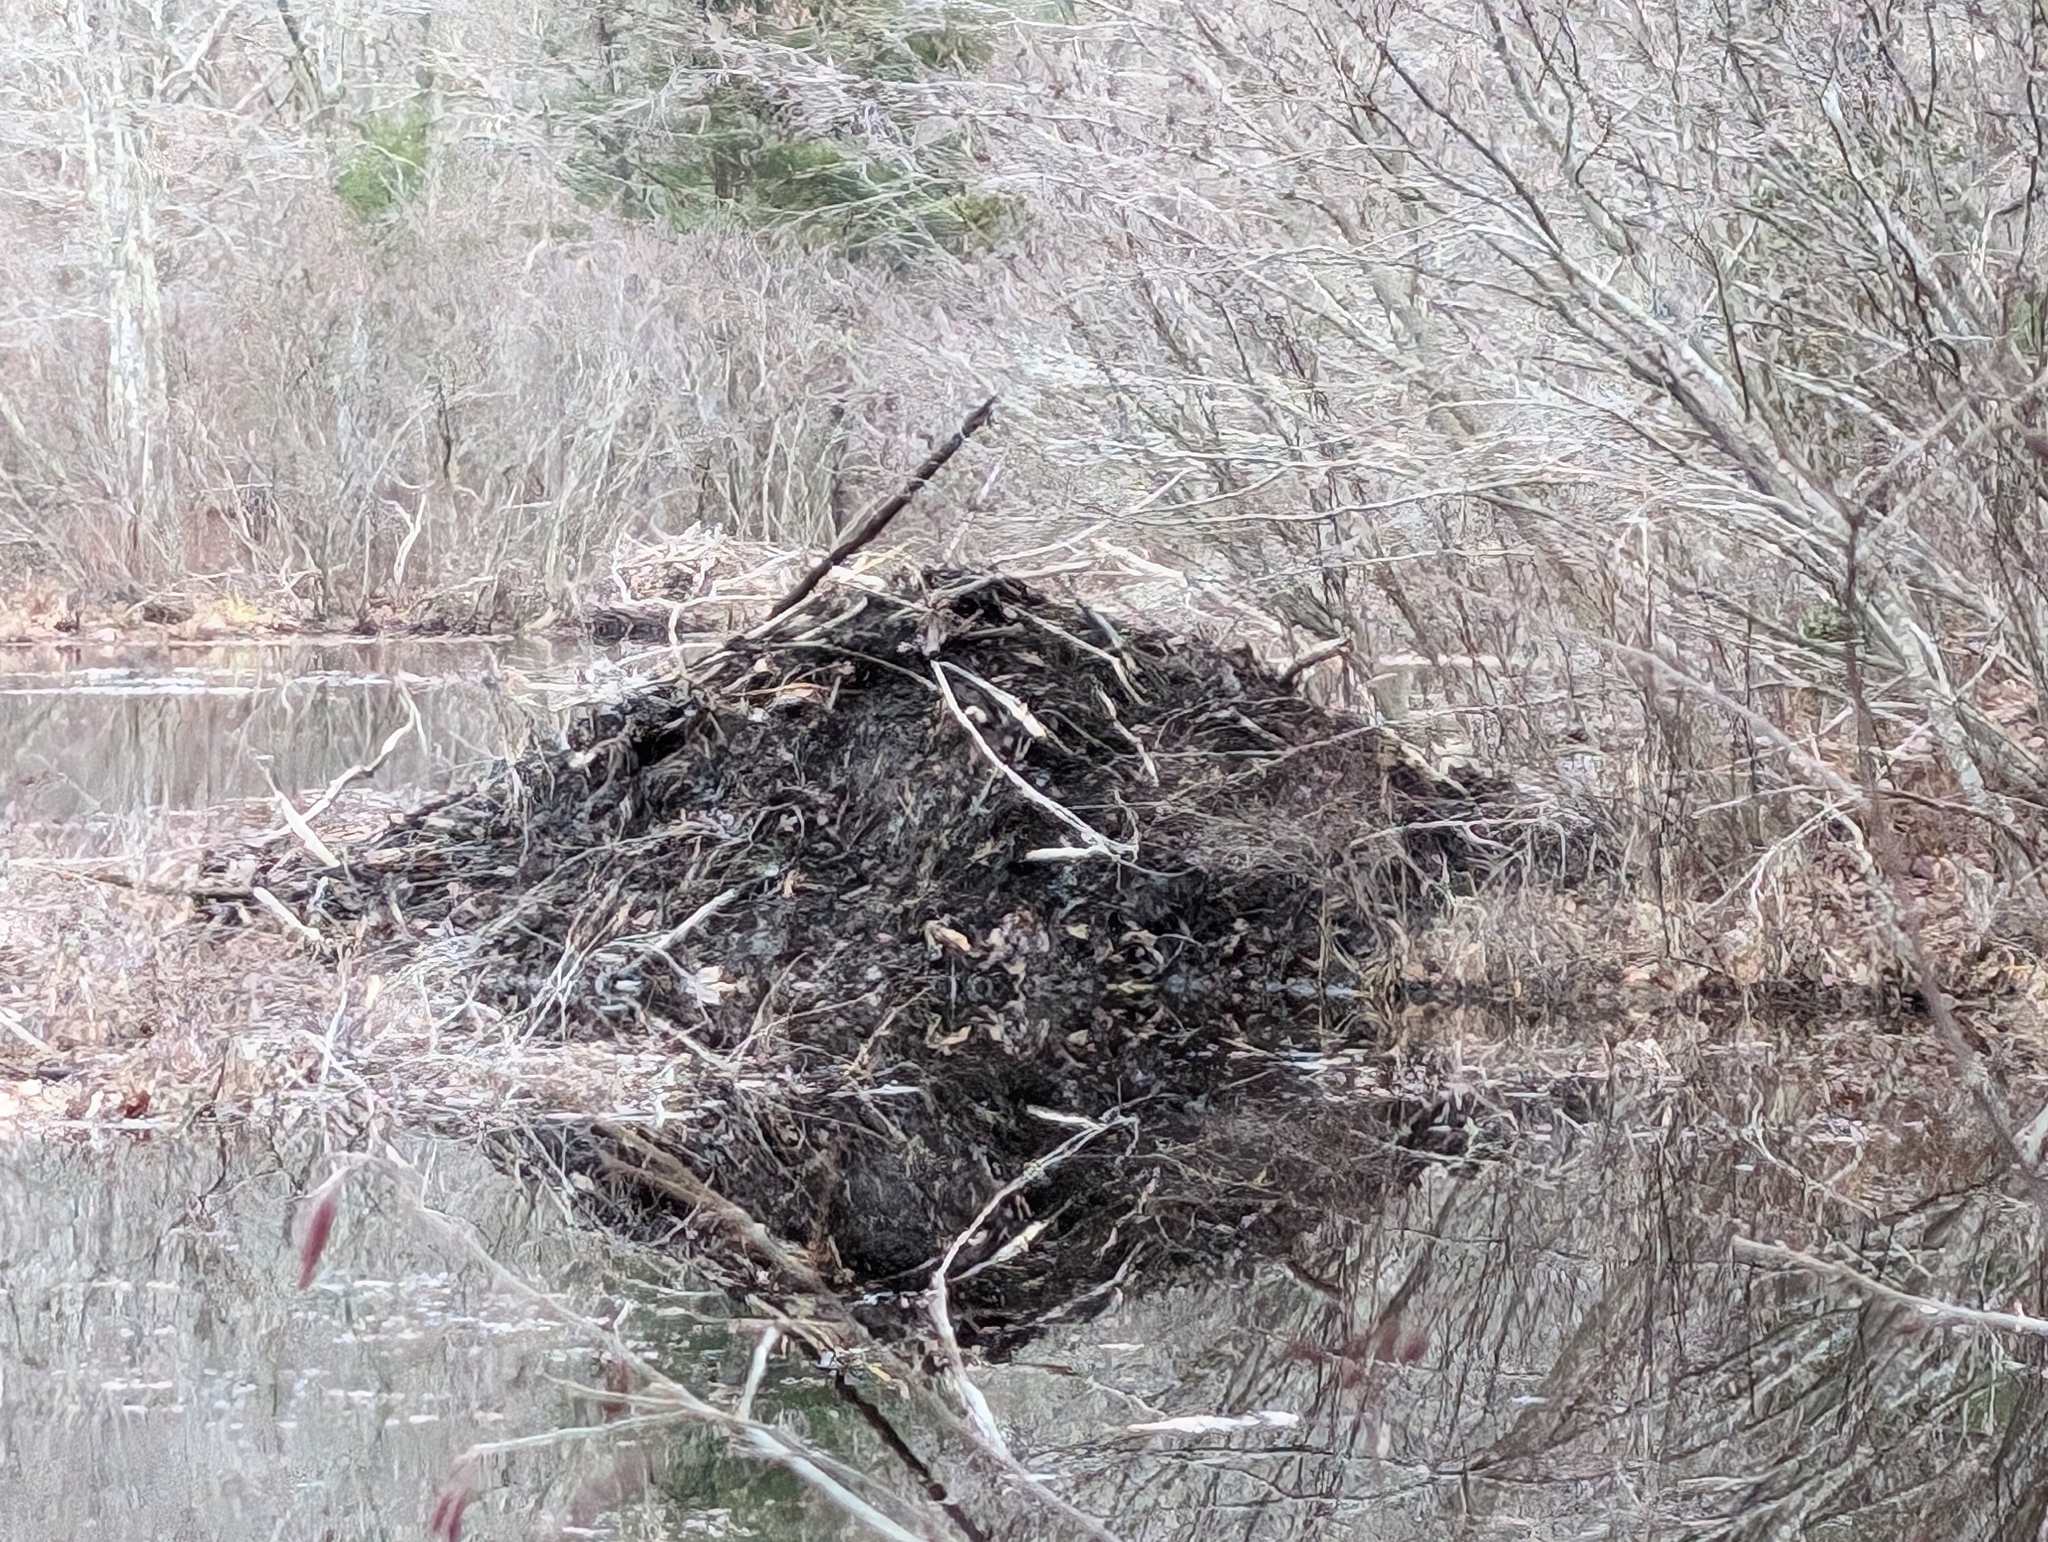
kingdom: Animalia
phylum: Chordata
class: Mammalia
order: Rodentia
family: Castoridae
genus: Castor
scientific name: Castor canadensis
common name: American beaver
